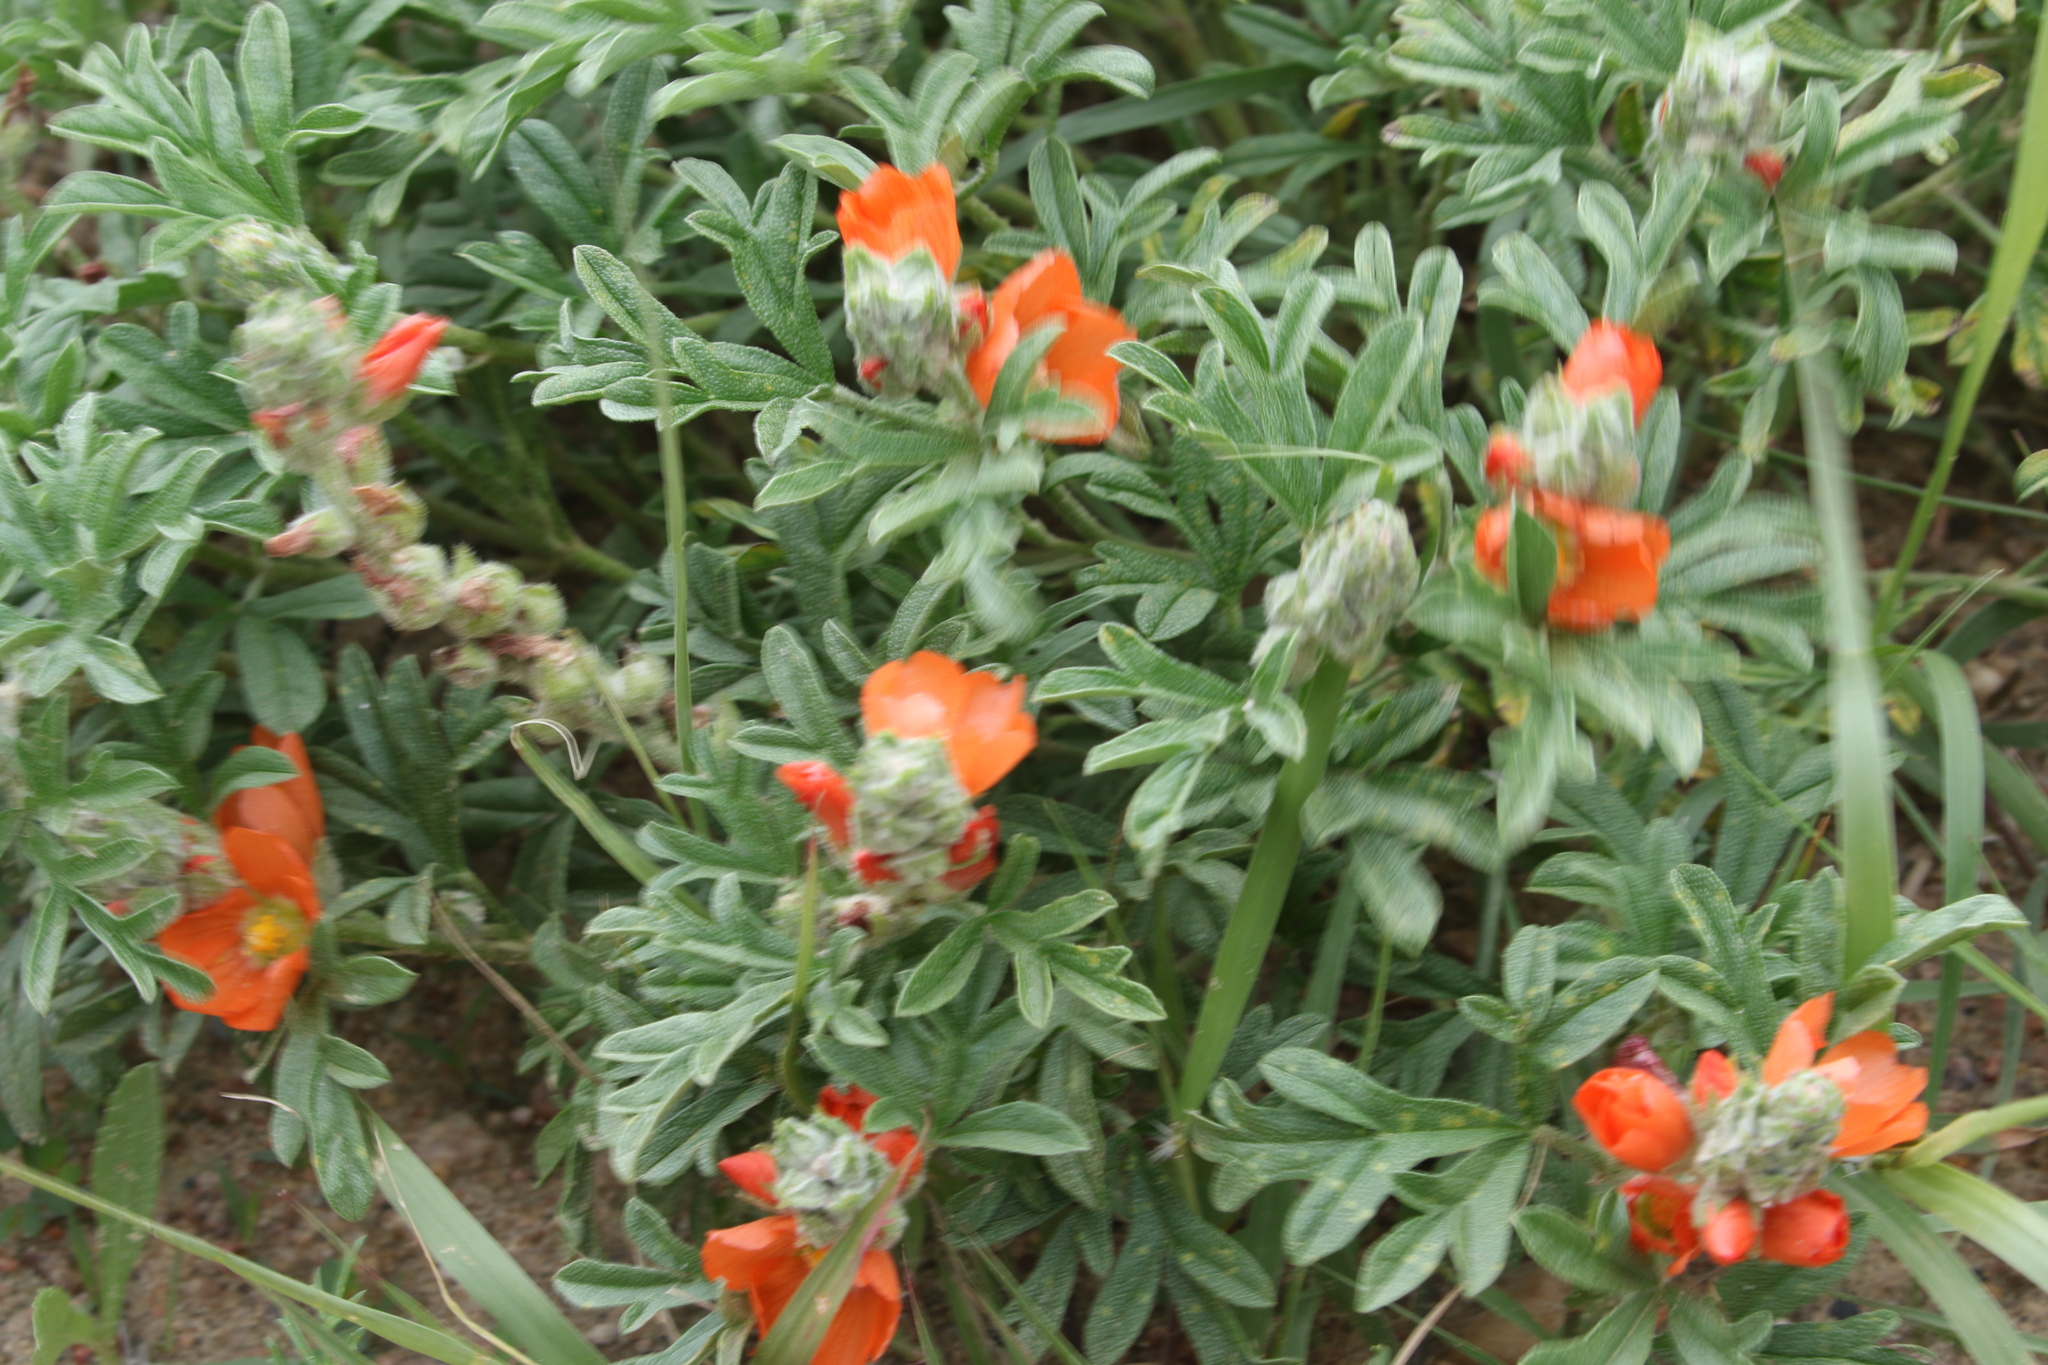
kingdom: Plantae
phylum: Tracheophyta
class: Magnoliopsida
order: Malvales
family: Malvaceae
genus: Sphaeralcea
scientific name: Sphaeralcea coccinea
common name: Moss-rose
